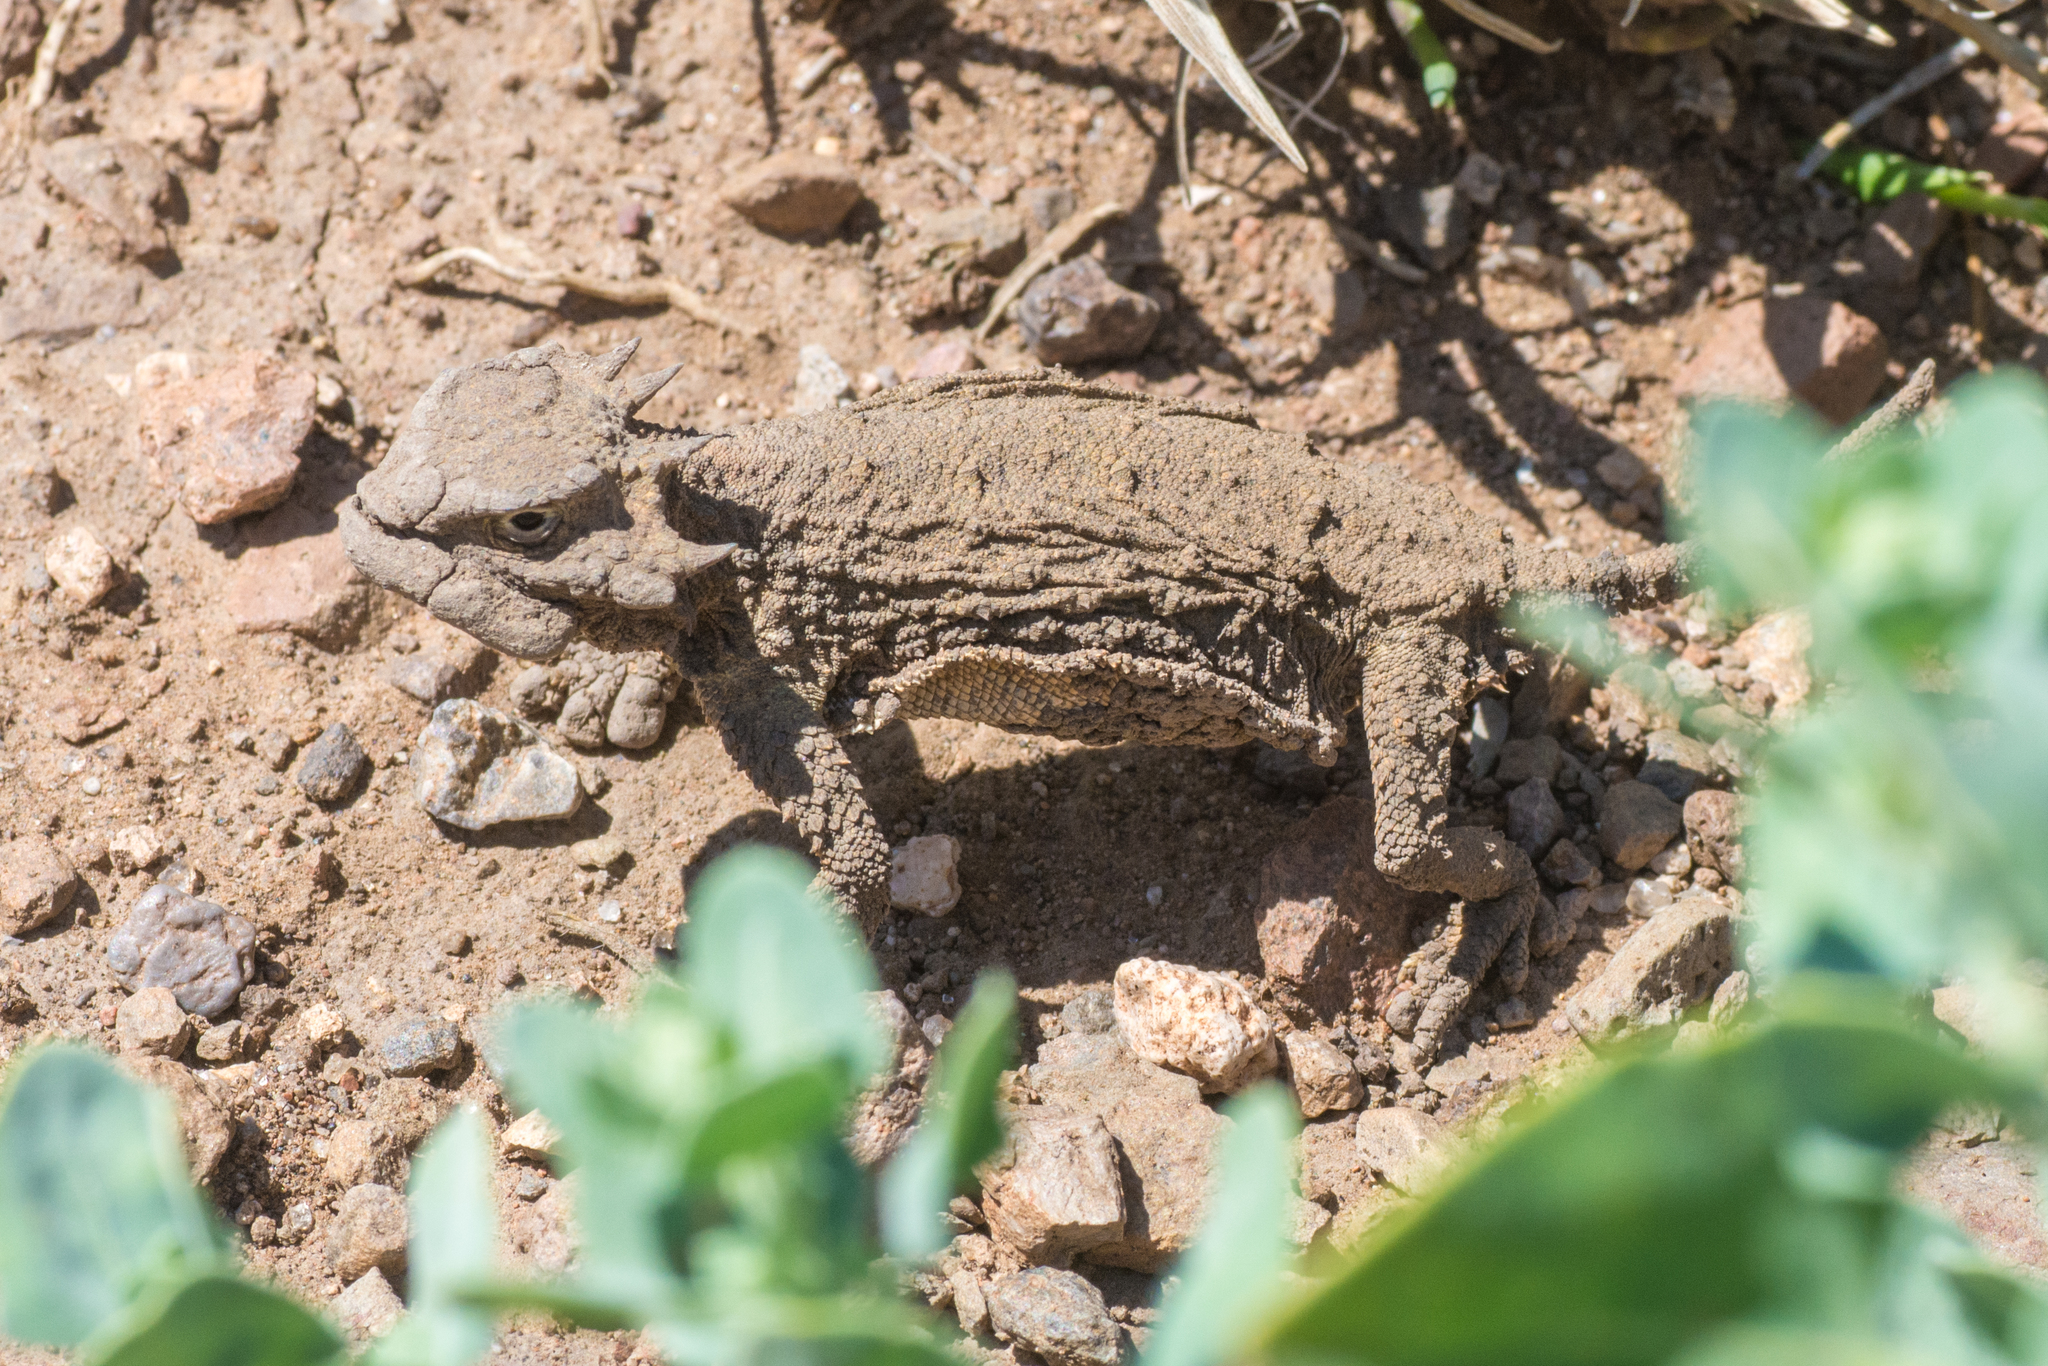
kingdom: Animalia
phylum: Chordata
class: Squamata
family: Phrynosomatidae
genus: Phrynosoma
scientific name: Phrynosoma modestum
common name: Roundtail horned lizard
